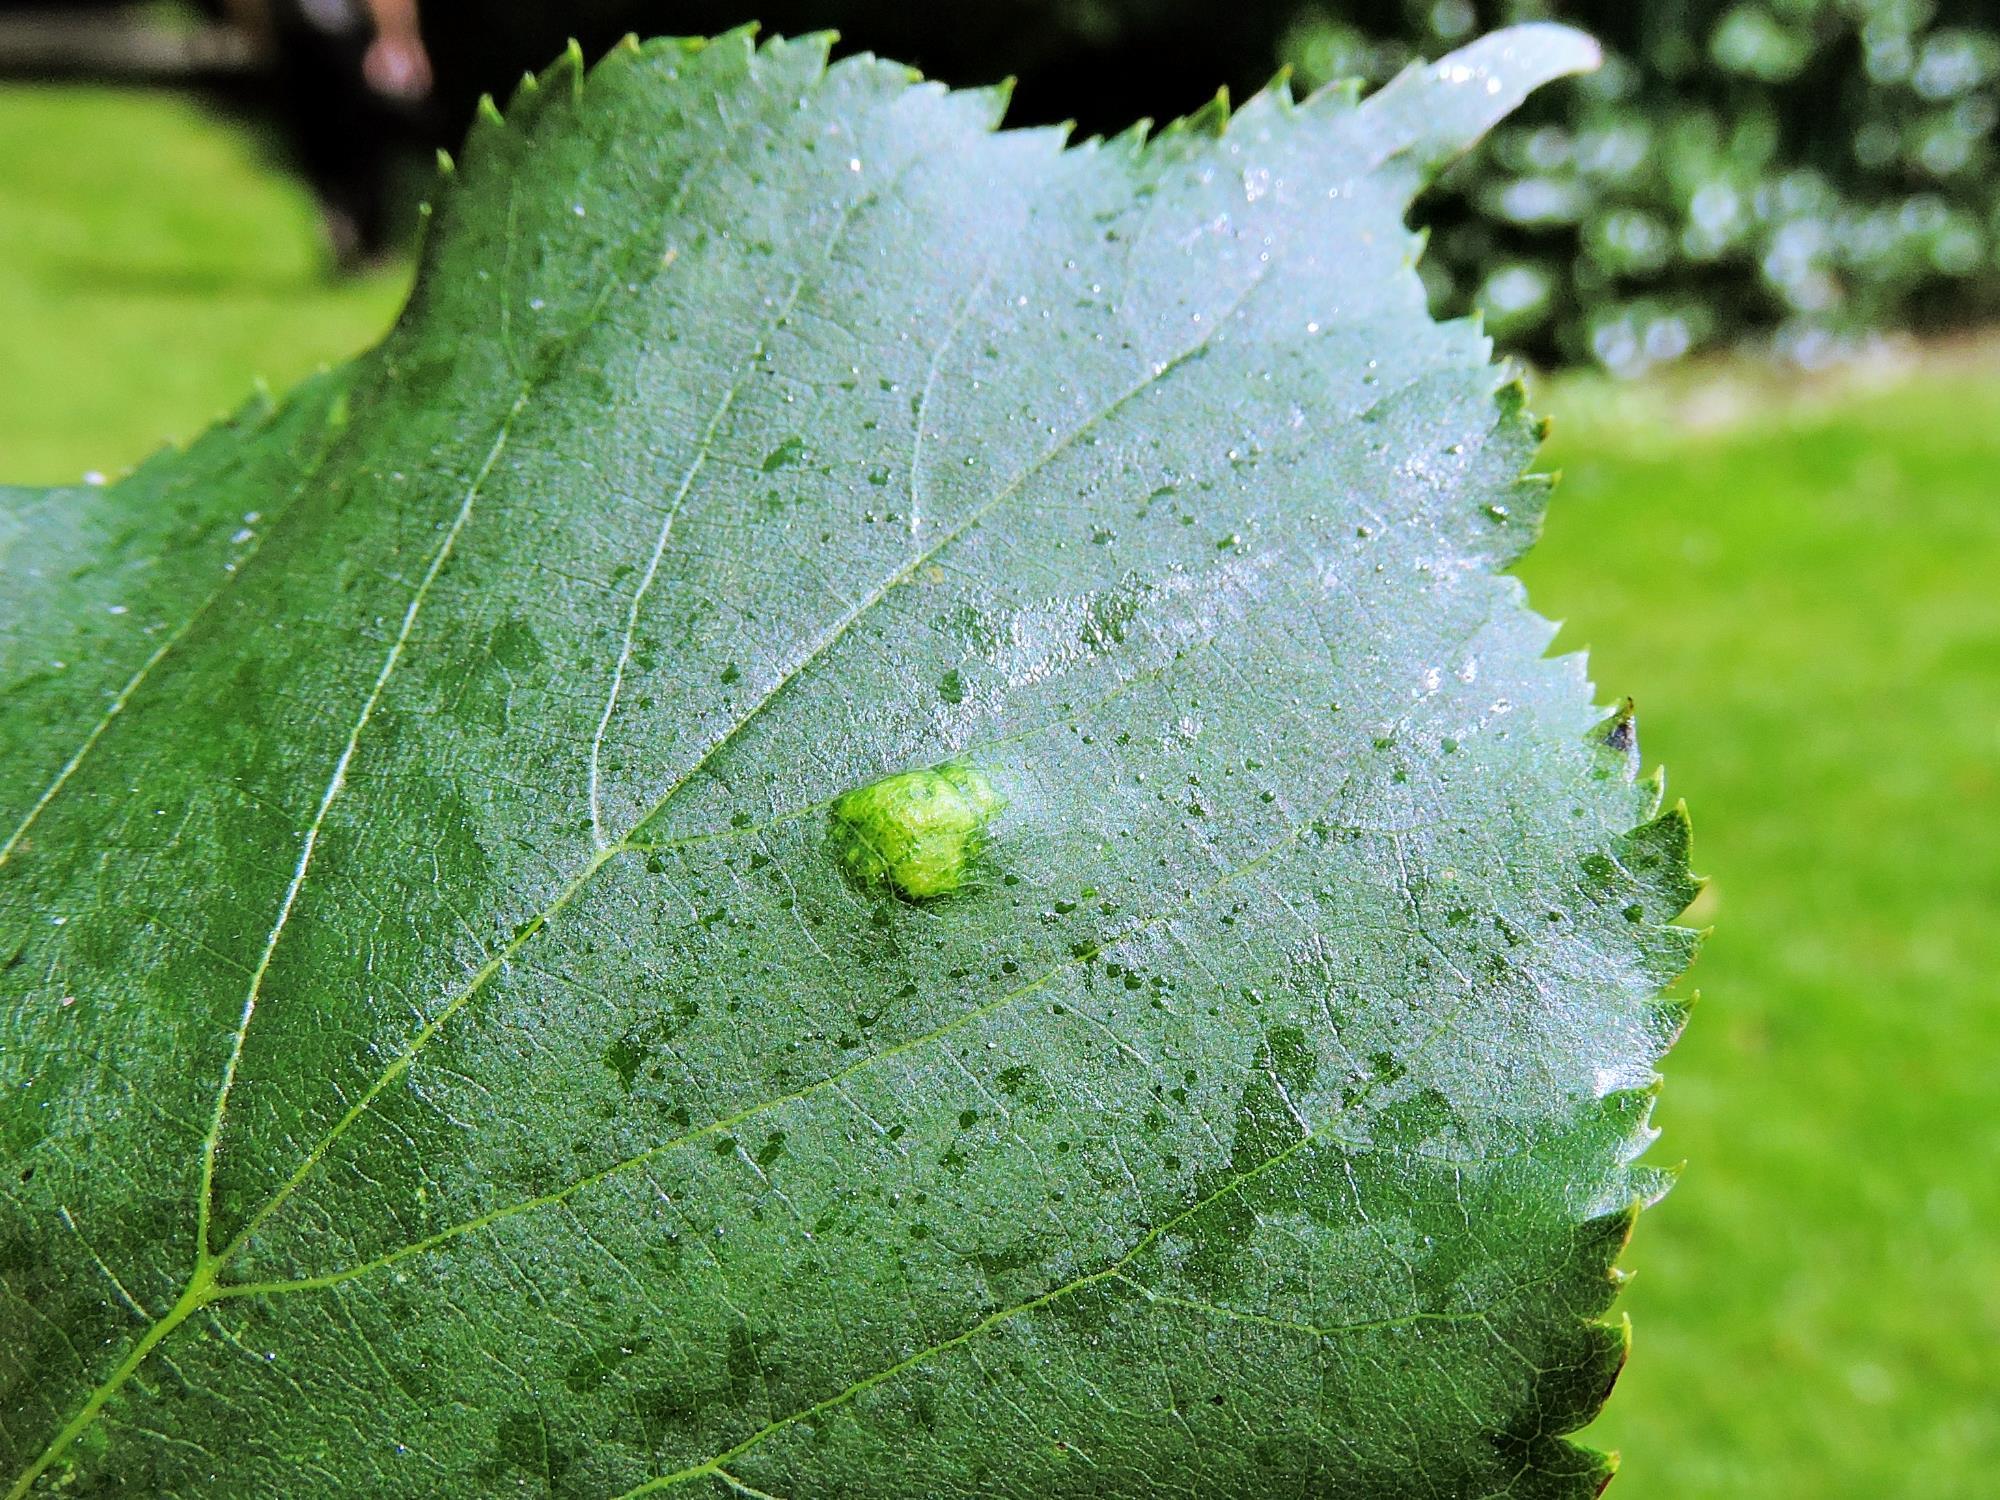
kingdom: Animalia
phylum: Arthropoda
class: Arachnida
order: Trombidiformes
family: Eriophyidae
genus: Eriophyes
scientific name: Eriophyes leiosoma
